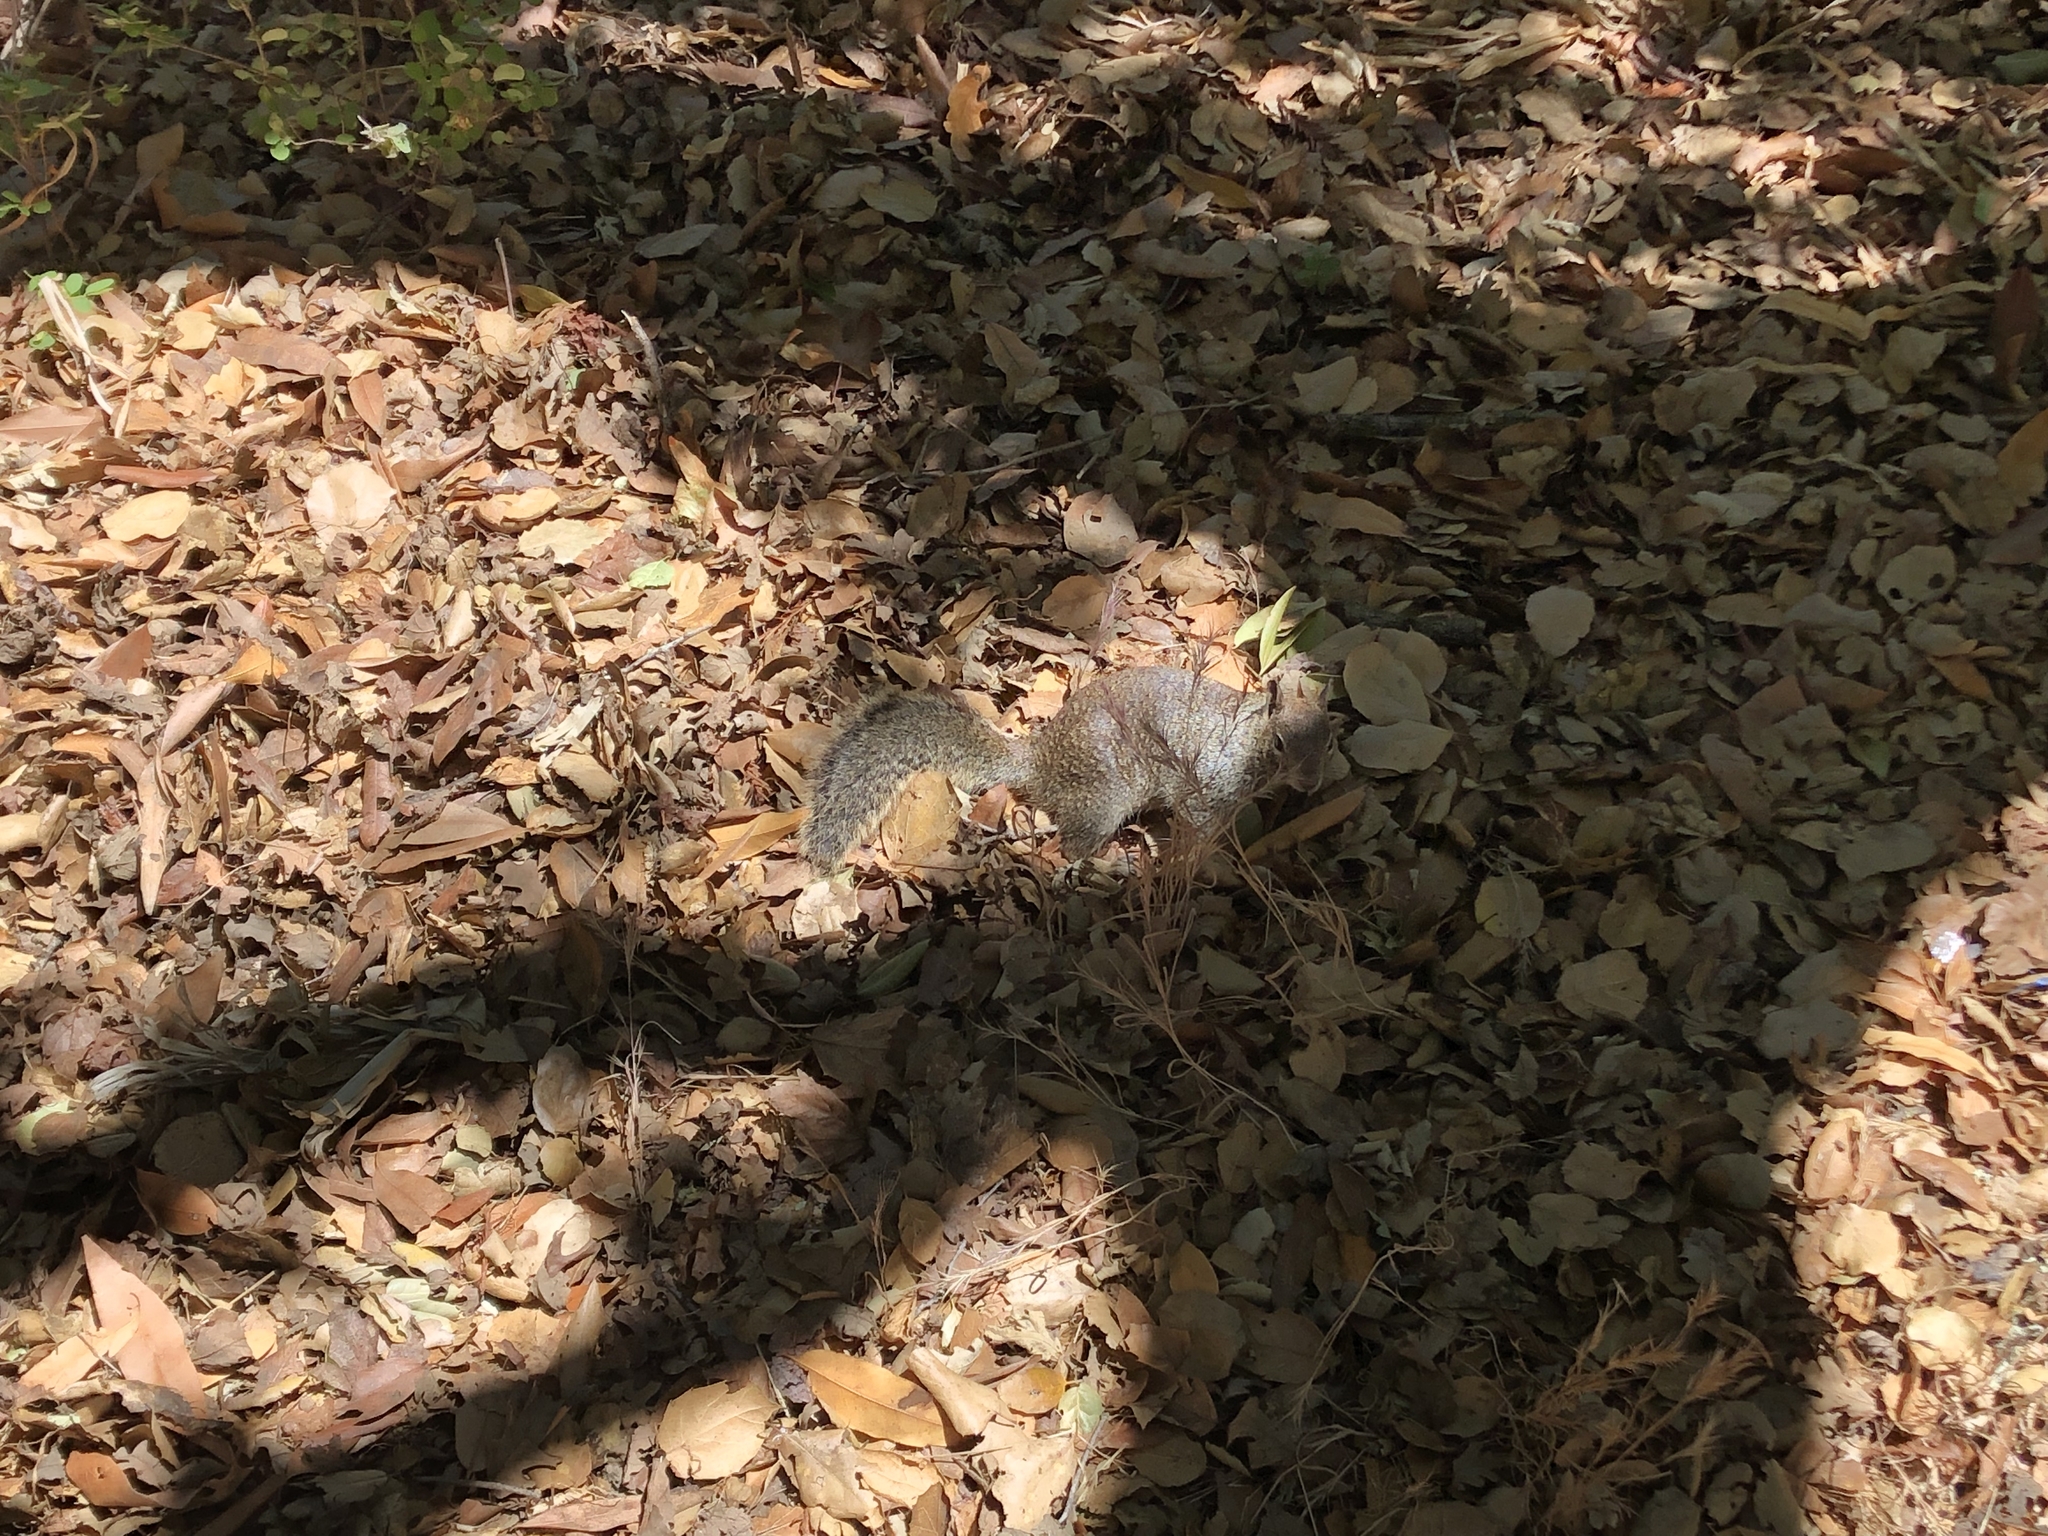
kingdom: Animalia
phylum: Chordata
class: Mammalia
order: Rodentia
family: Sciuridae
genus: Otospermophilus
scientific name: Otospermophilus beecheyi
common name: California ground squirrel
